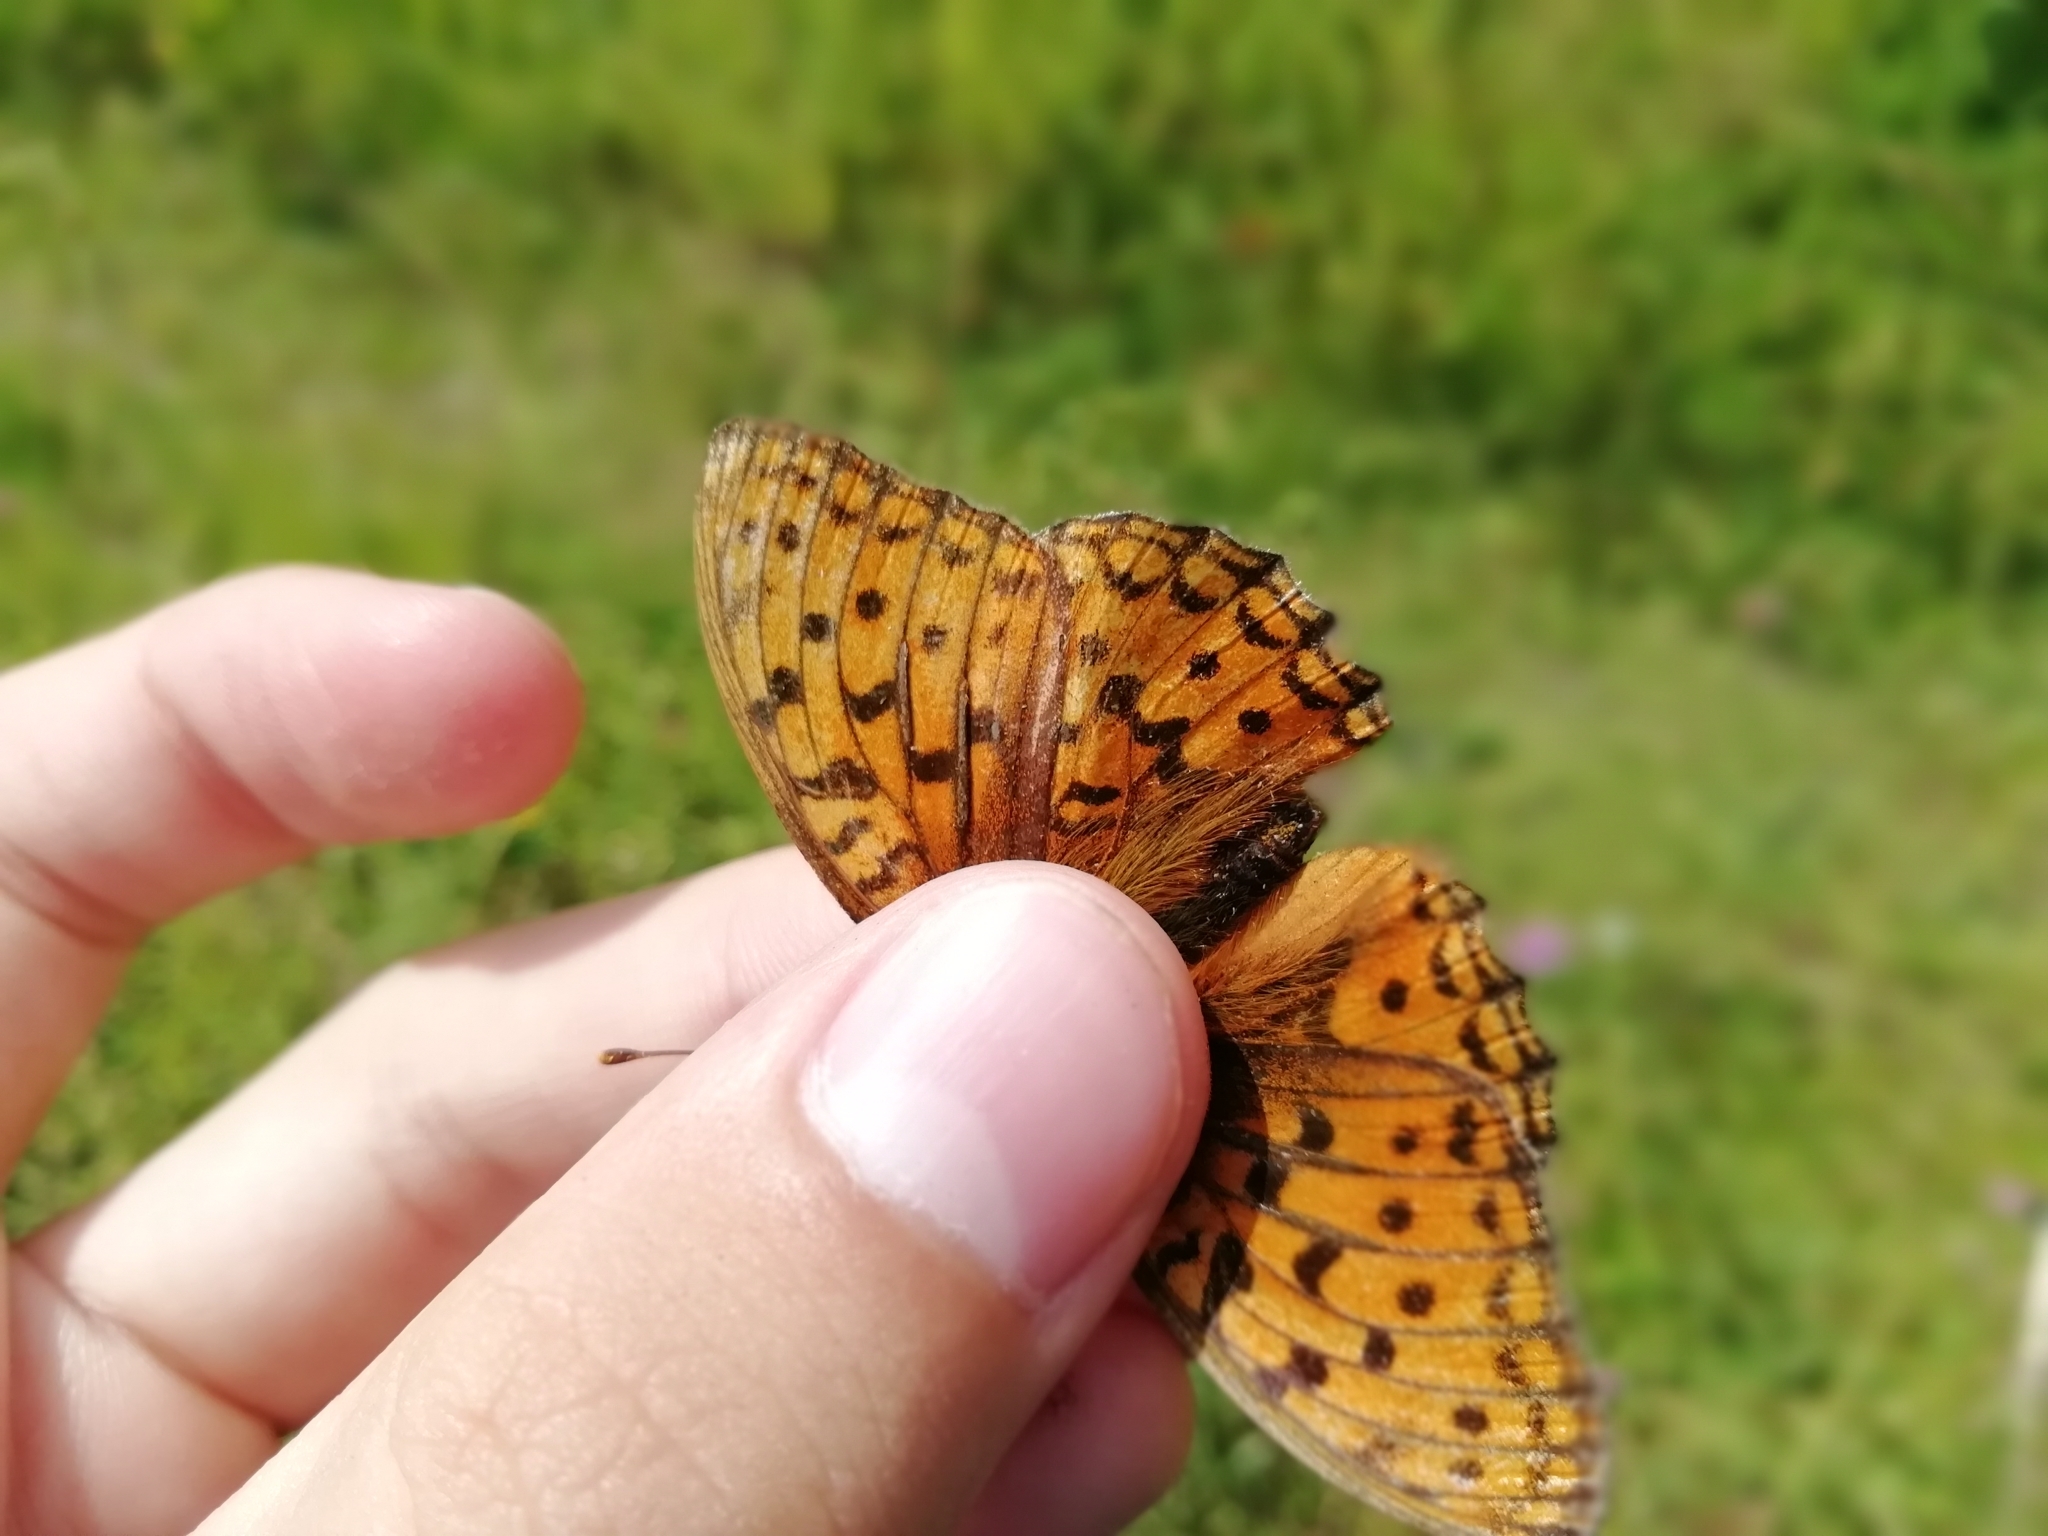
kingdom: Animalia
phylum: Arthropoda
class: Insecta
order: Lepidoptera
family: Nymphalidae
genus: Fabriciana
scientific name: Fabriciana adippe
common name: High brown fritillary
